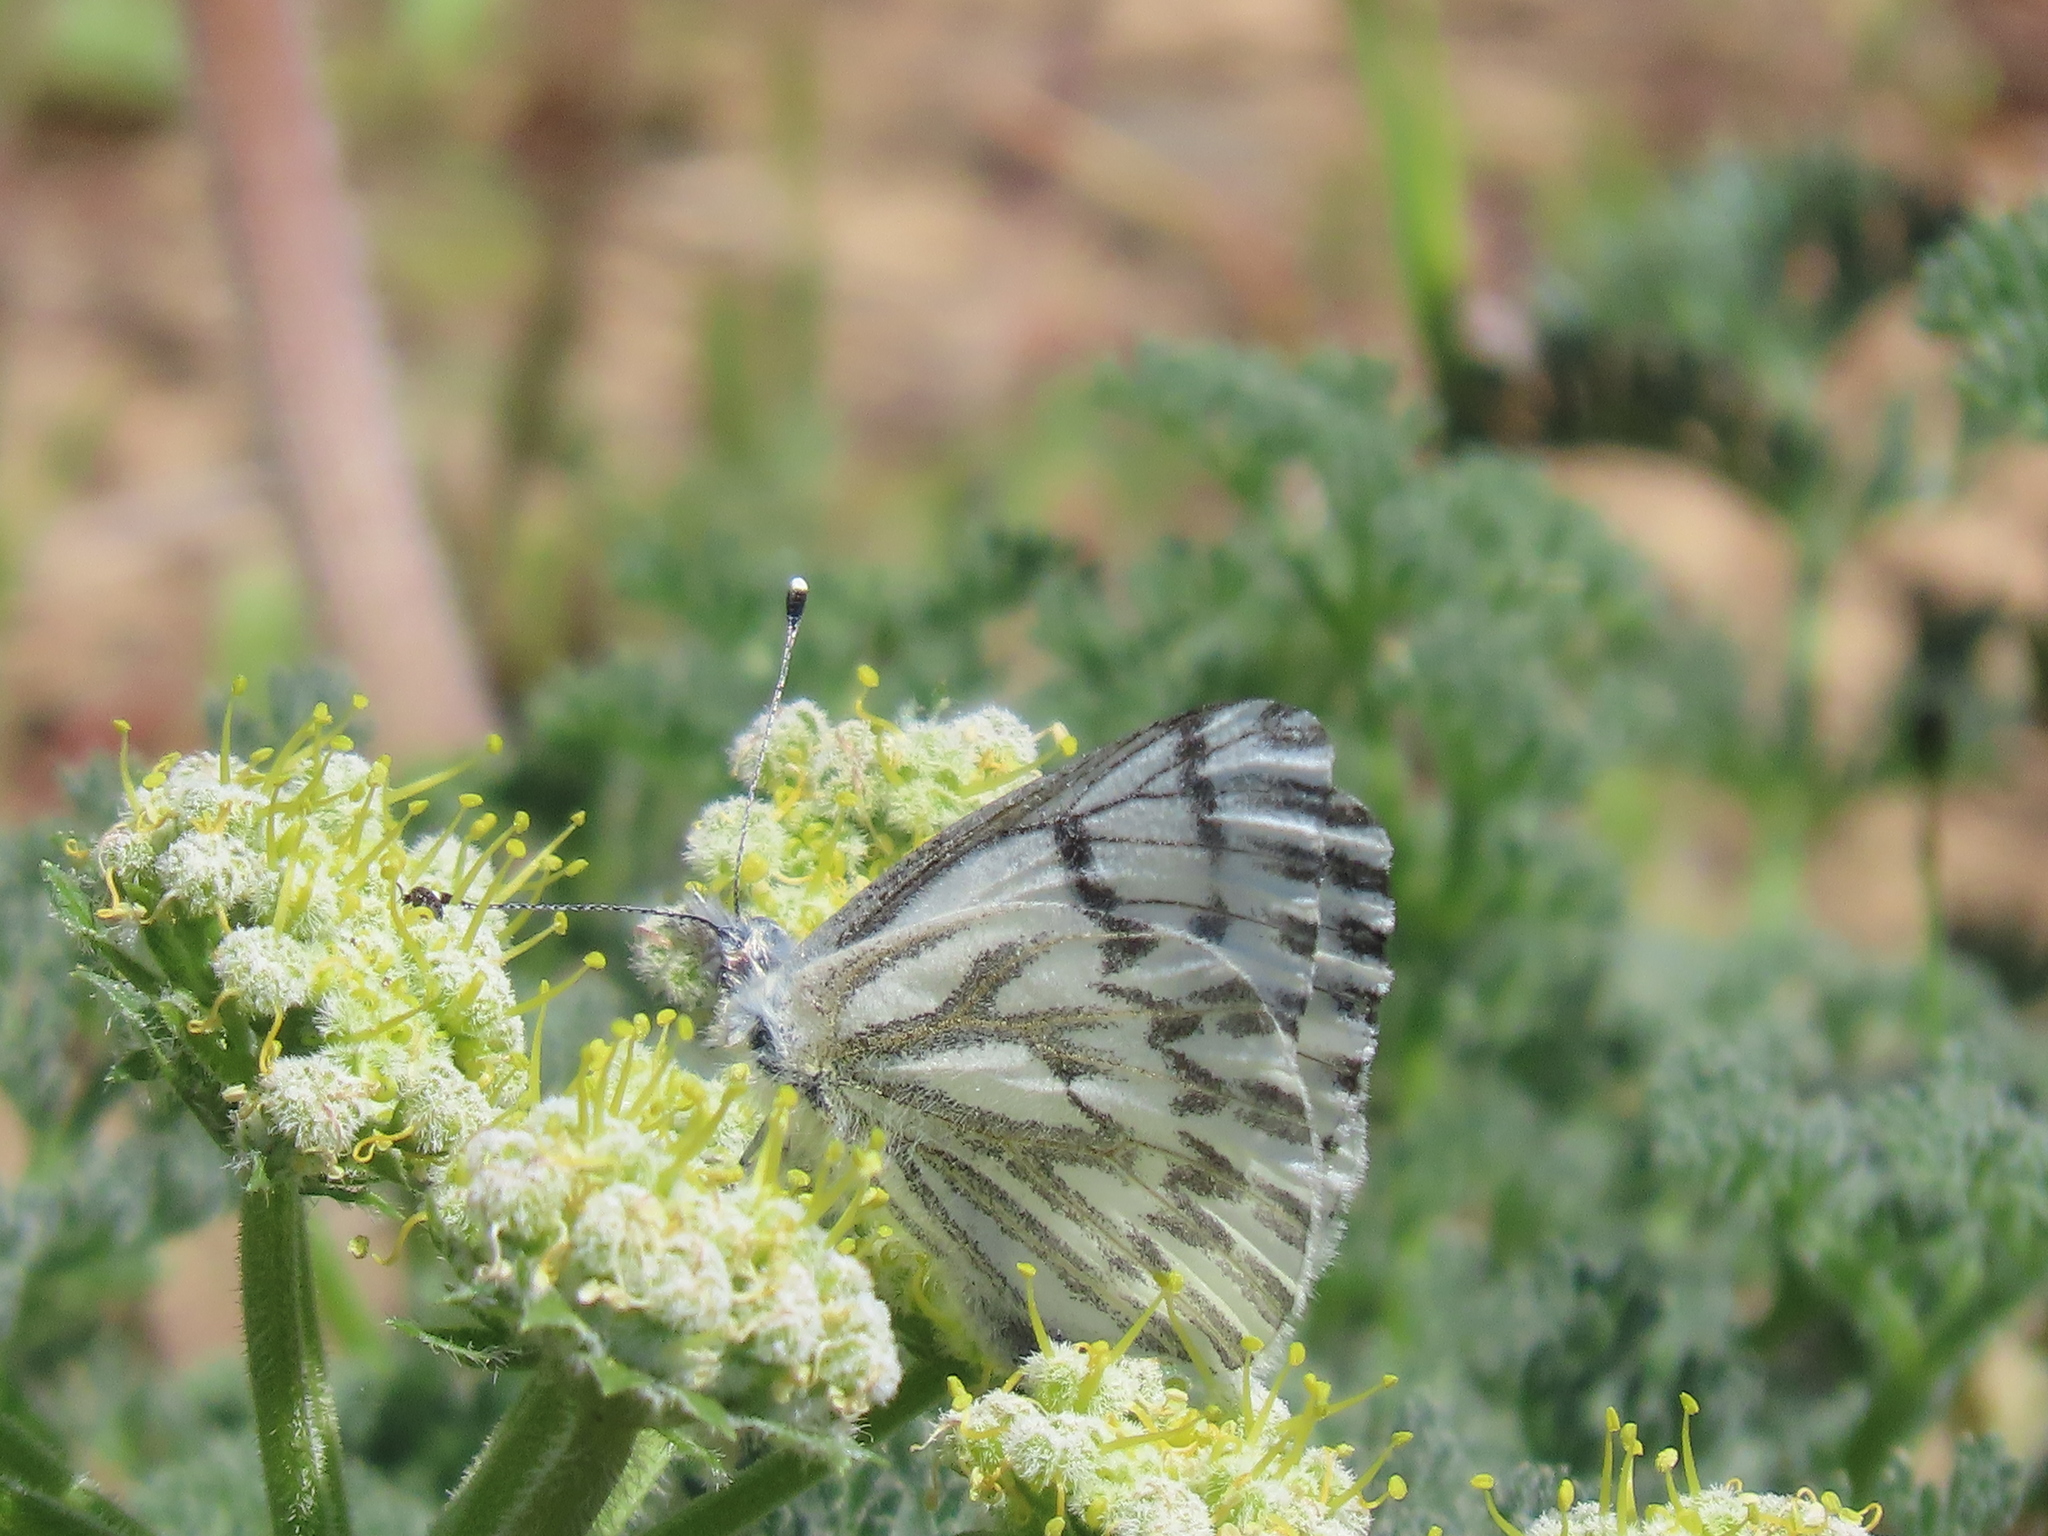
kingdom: Animalia
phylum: Arthropoda
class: Insecta
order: Lepidoptera
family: Pieridae
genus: Pontia
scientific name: Pontia sisymbrii
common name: California white
